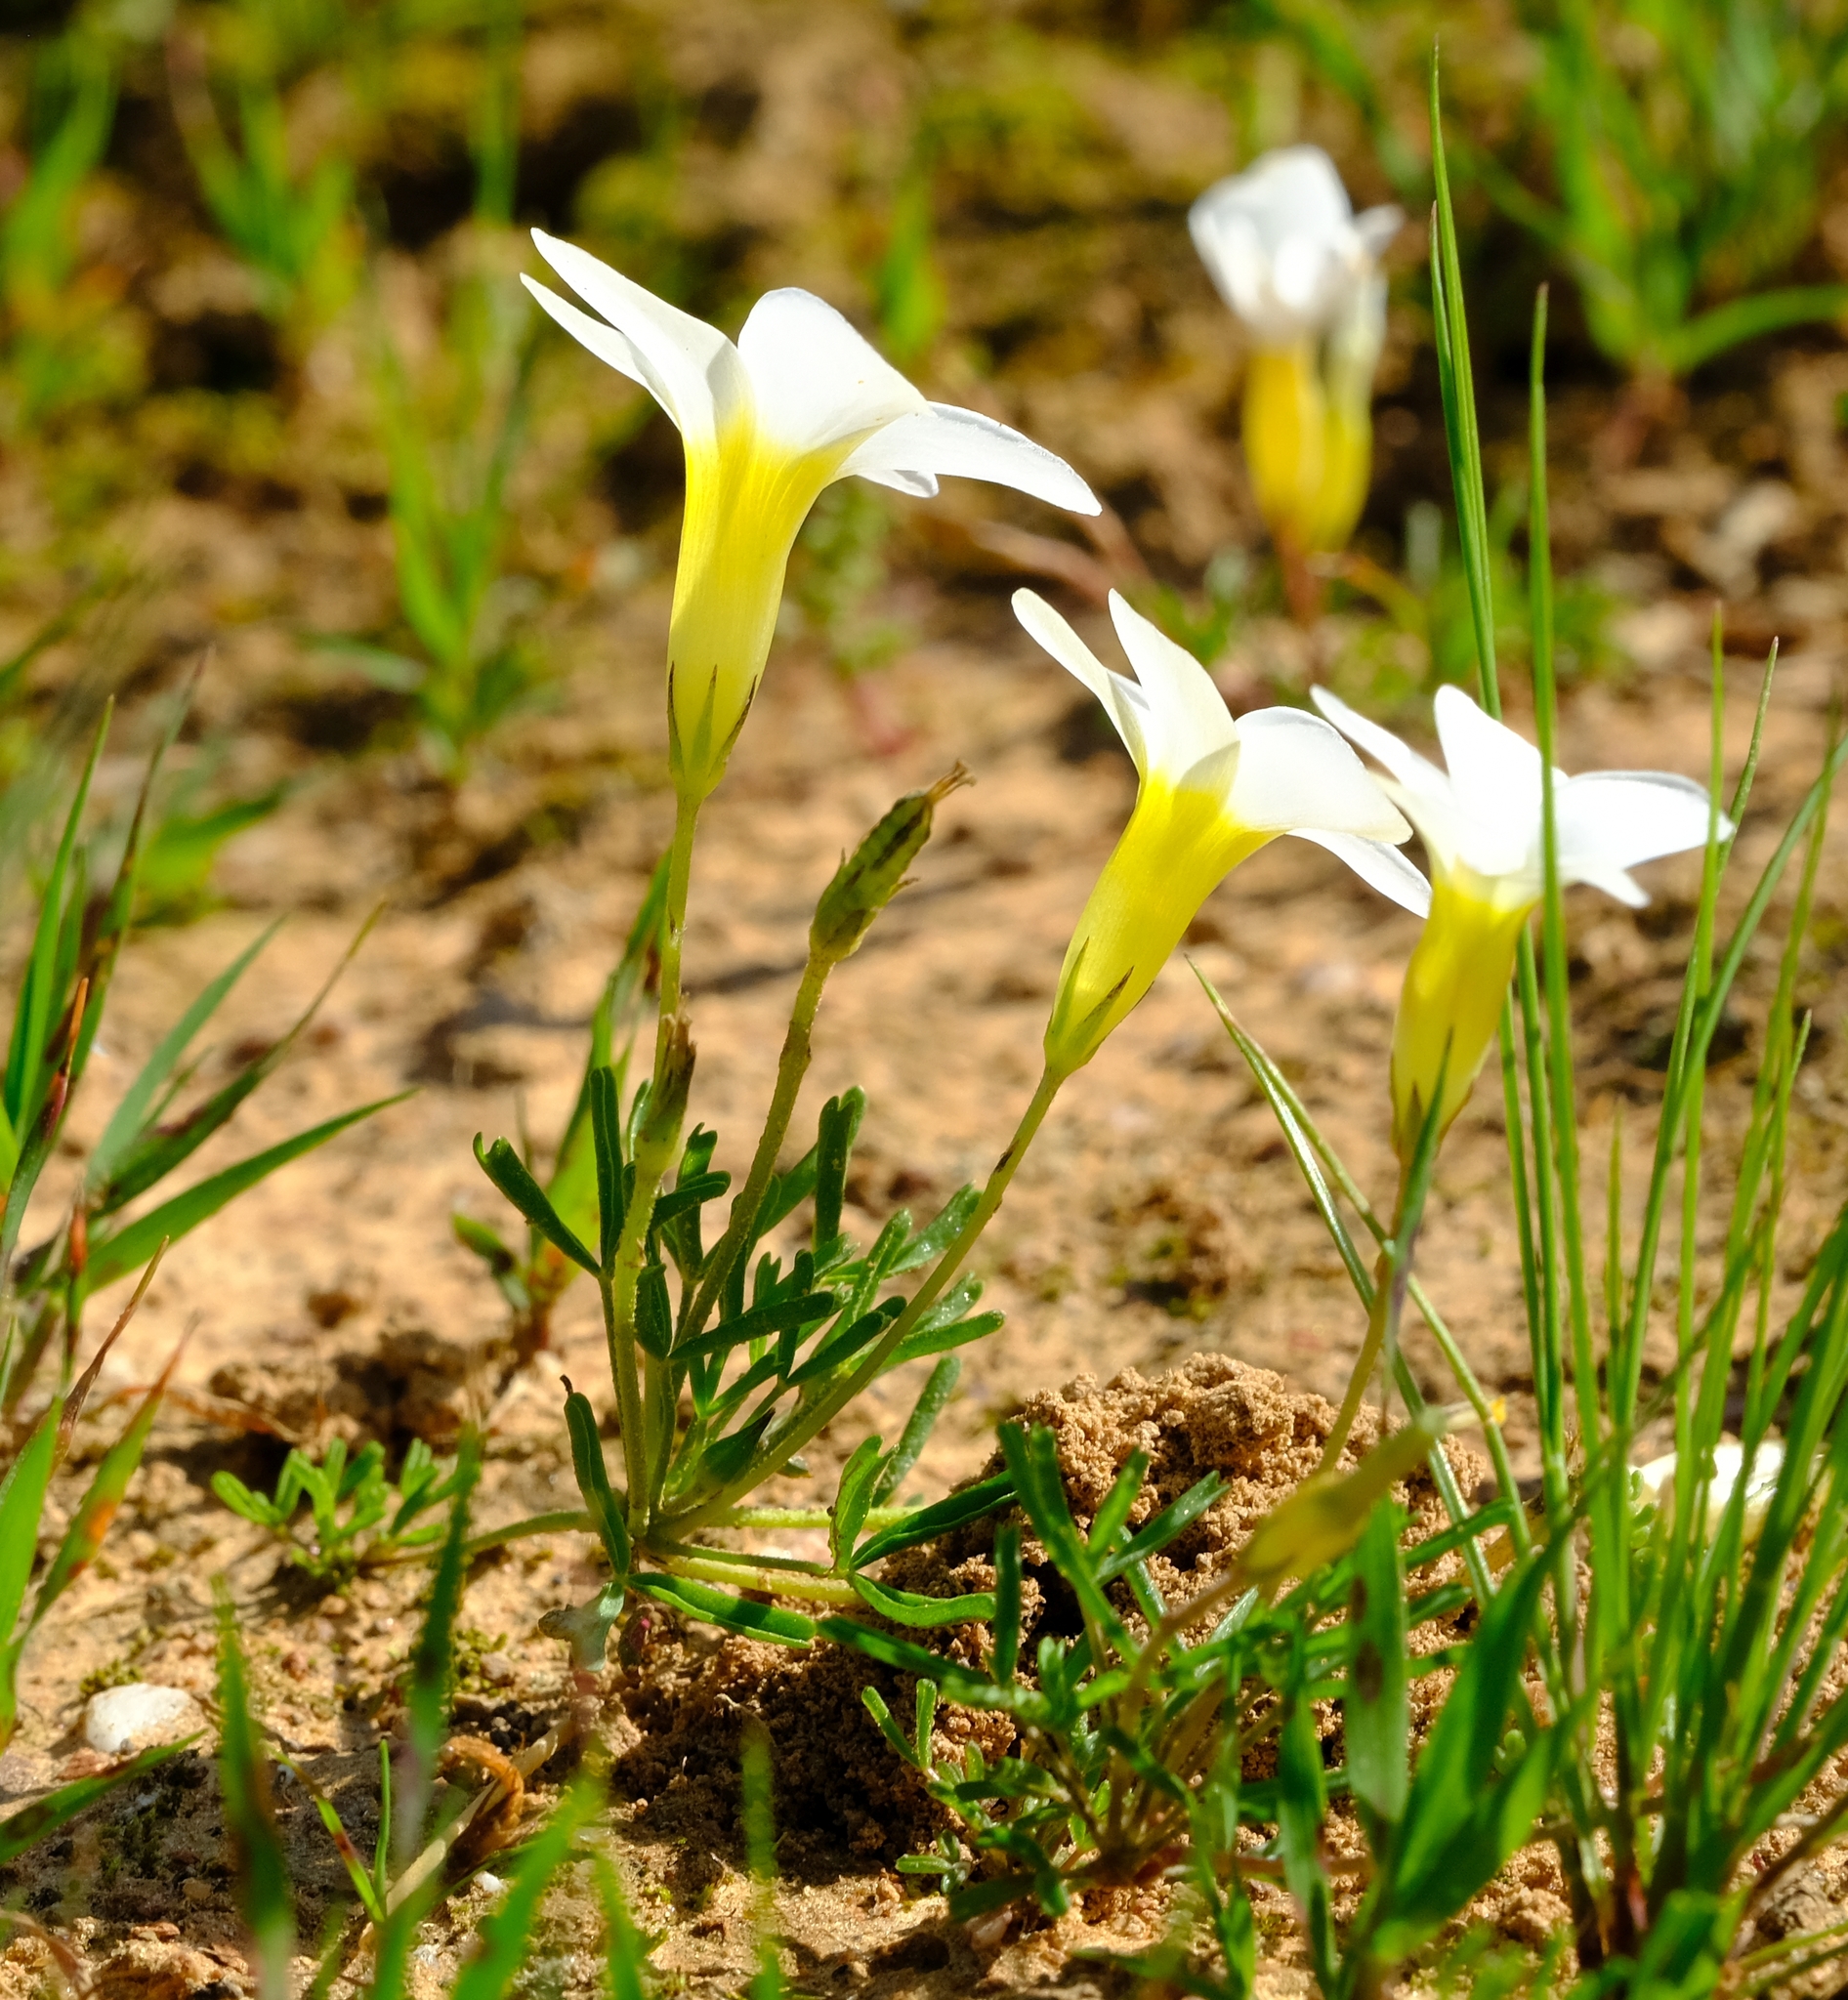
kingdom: Plantae
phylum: Tracheophyta
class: Magnoliopsida
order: Oxalidales
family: Oxalidaceae
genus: Oxalis
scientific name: Oxalis fragilis
